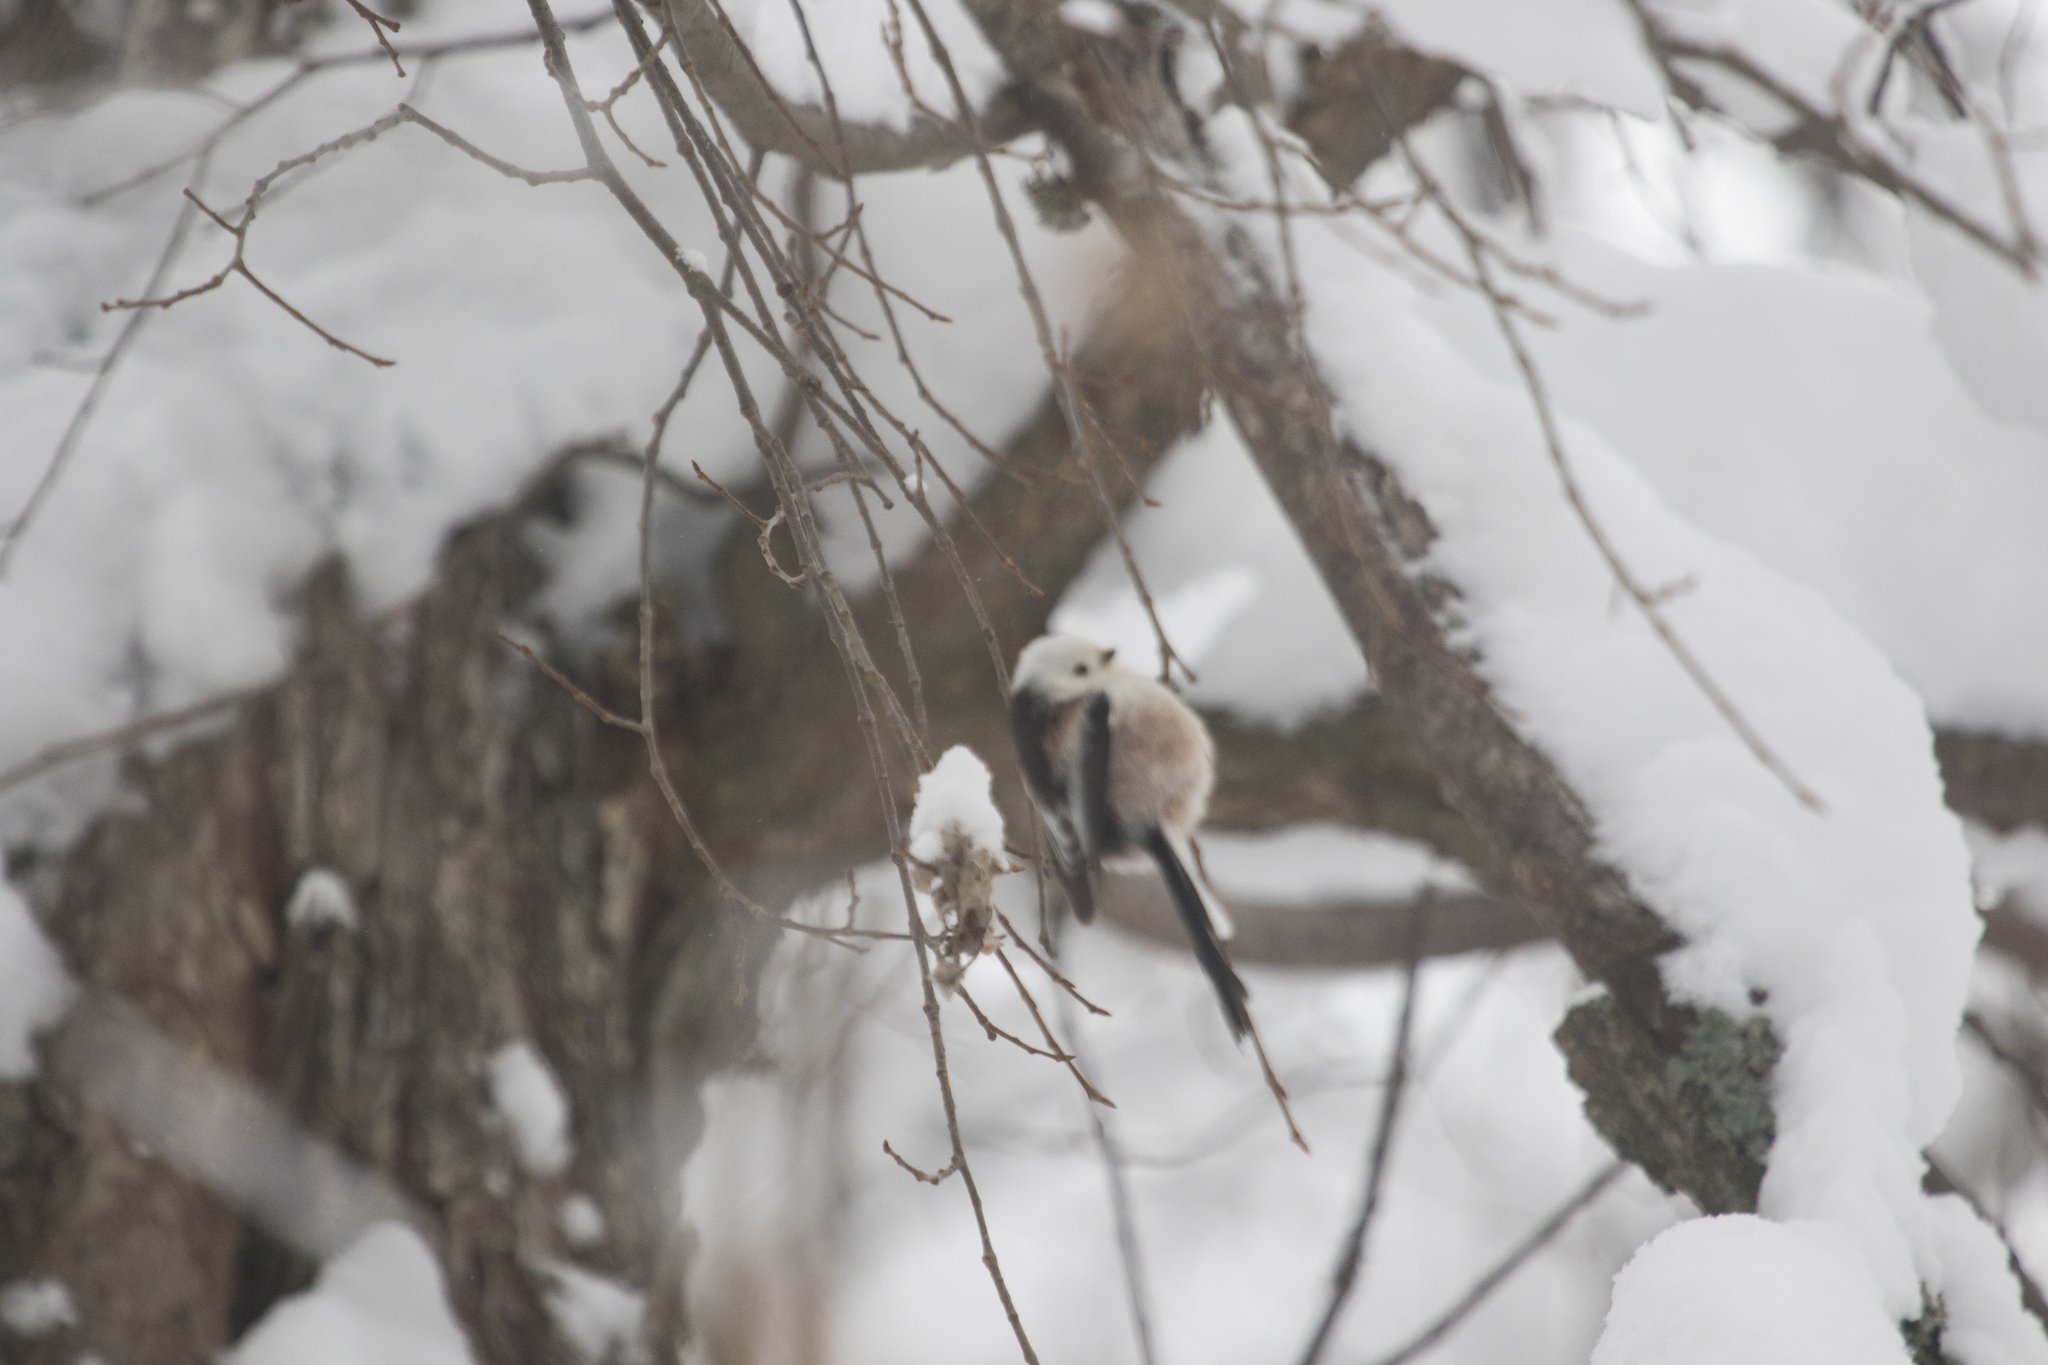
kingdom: Animalia
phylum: Chordata
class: Aves
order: Passeriformes
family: Aegithalidae
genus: Aegithalos
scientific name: Aegithalos caudatus
